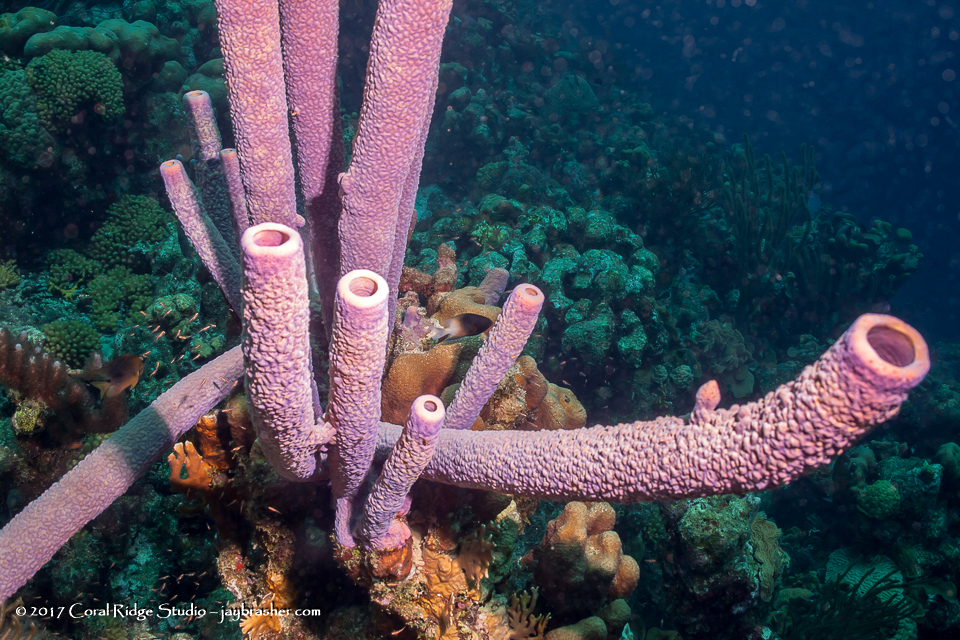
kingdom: Animalia
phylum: Porifera
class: Demospongiae
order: Verongiida
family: Aplysinidae
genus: Aplysina
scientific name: Aplysina archeri
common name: Stove-pipe sponge
